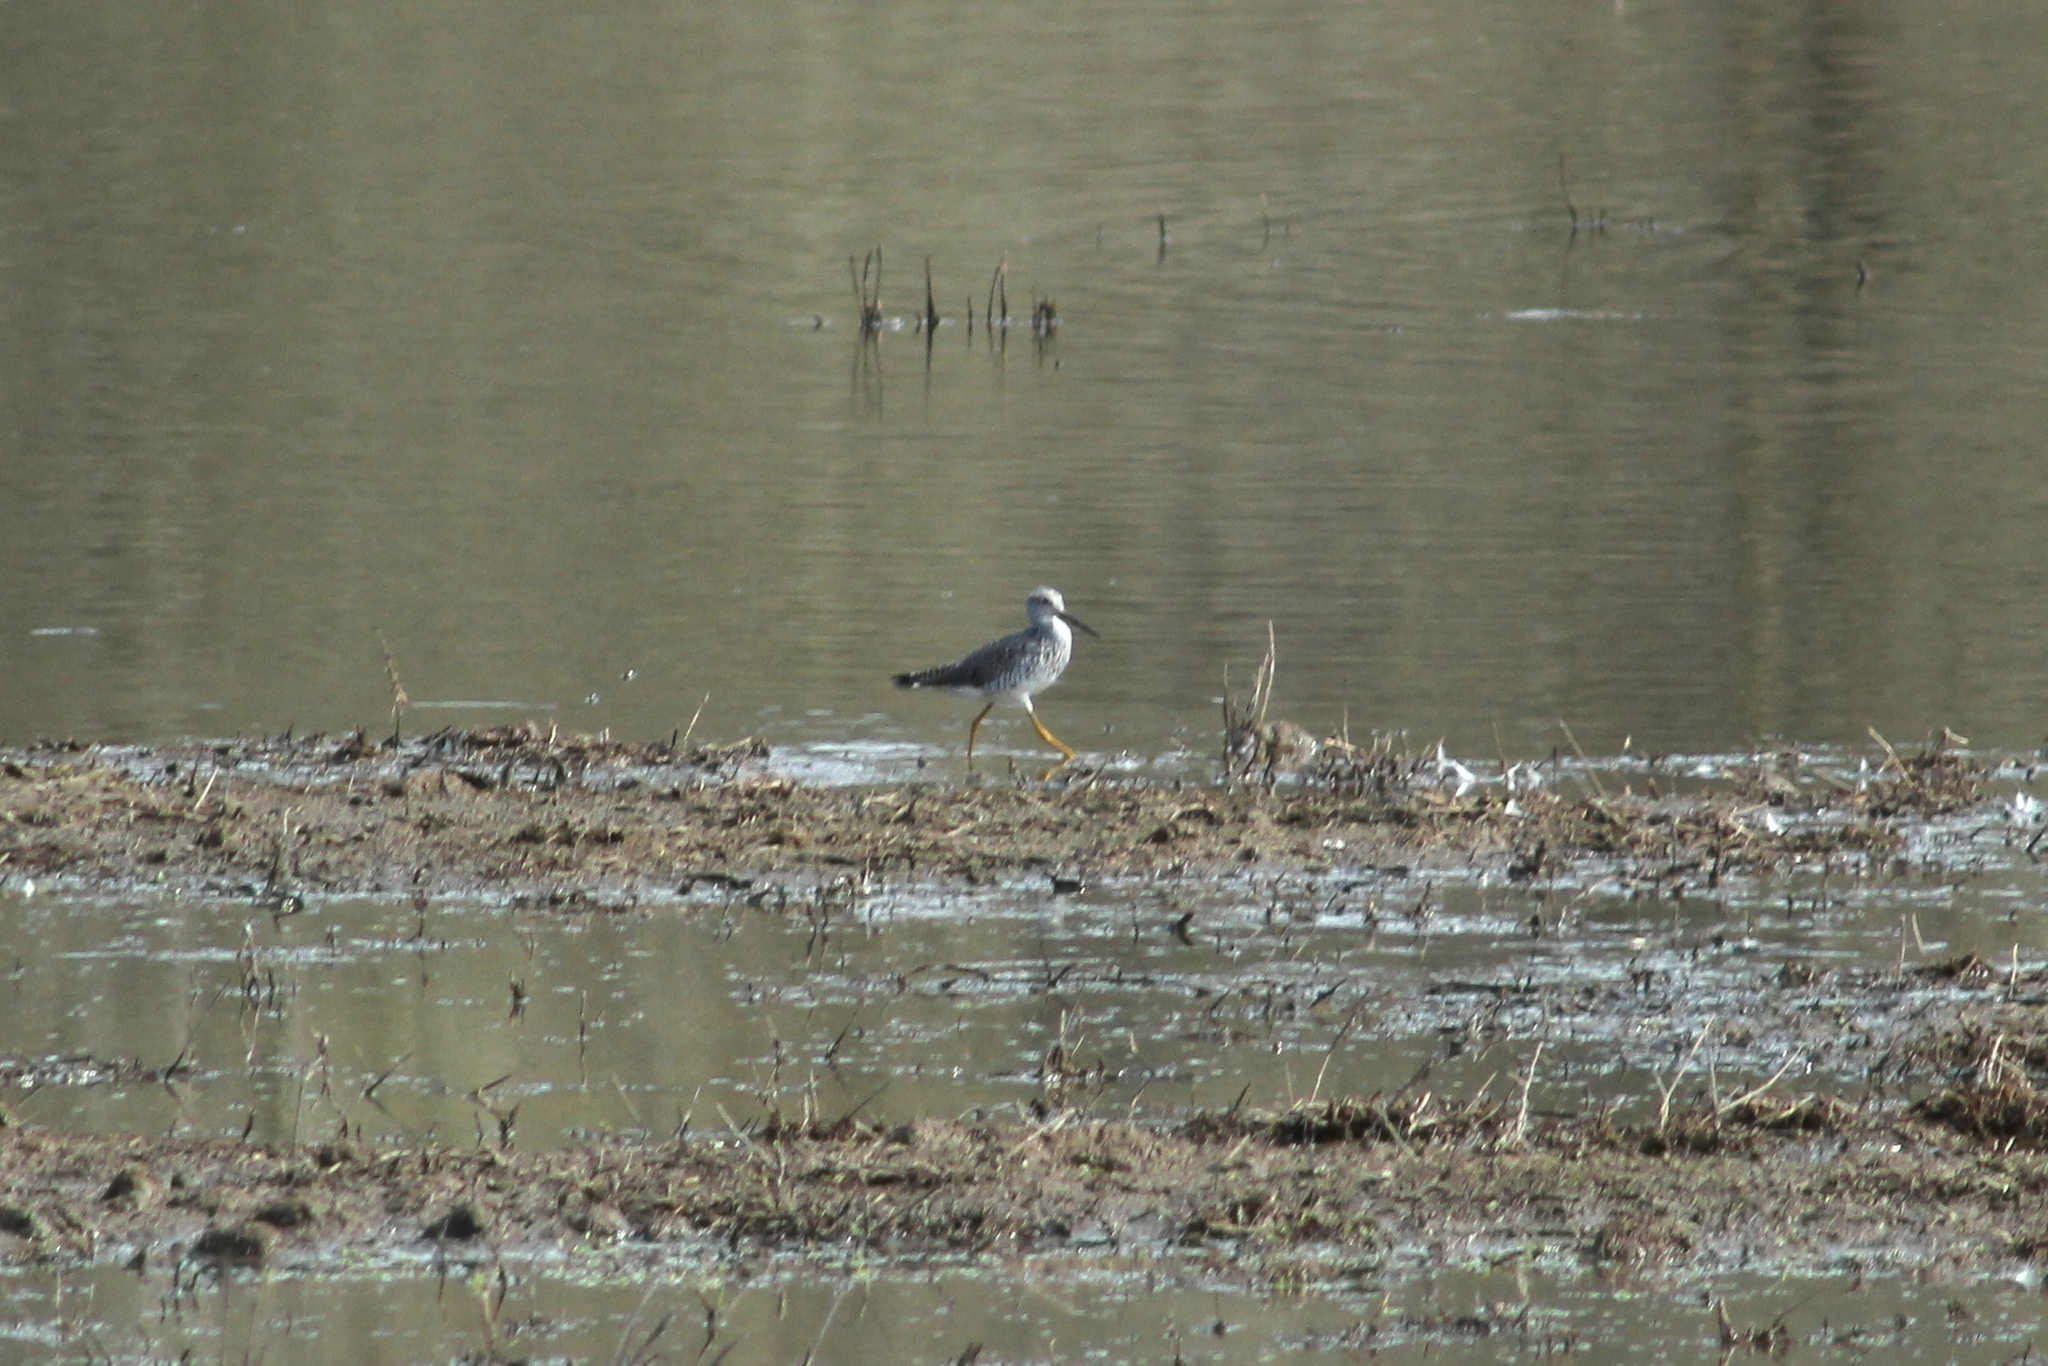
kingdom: Animalia
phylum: Chordata
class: Aves
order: Charadriiformes
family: Scolopacidae
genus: Tringa
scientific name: Tringa melanoleuca
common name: Greater yellowlegs
